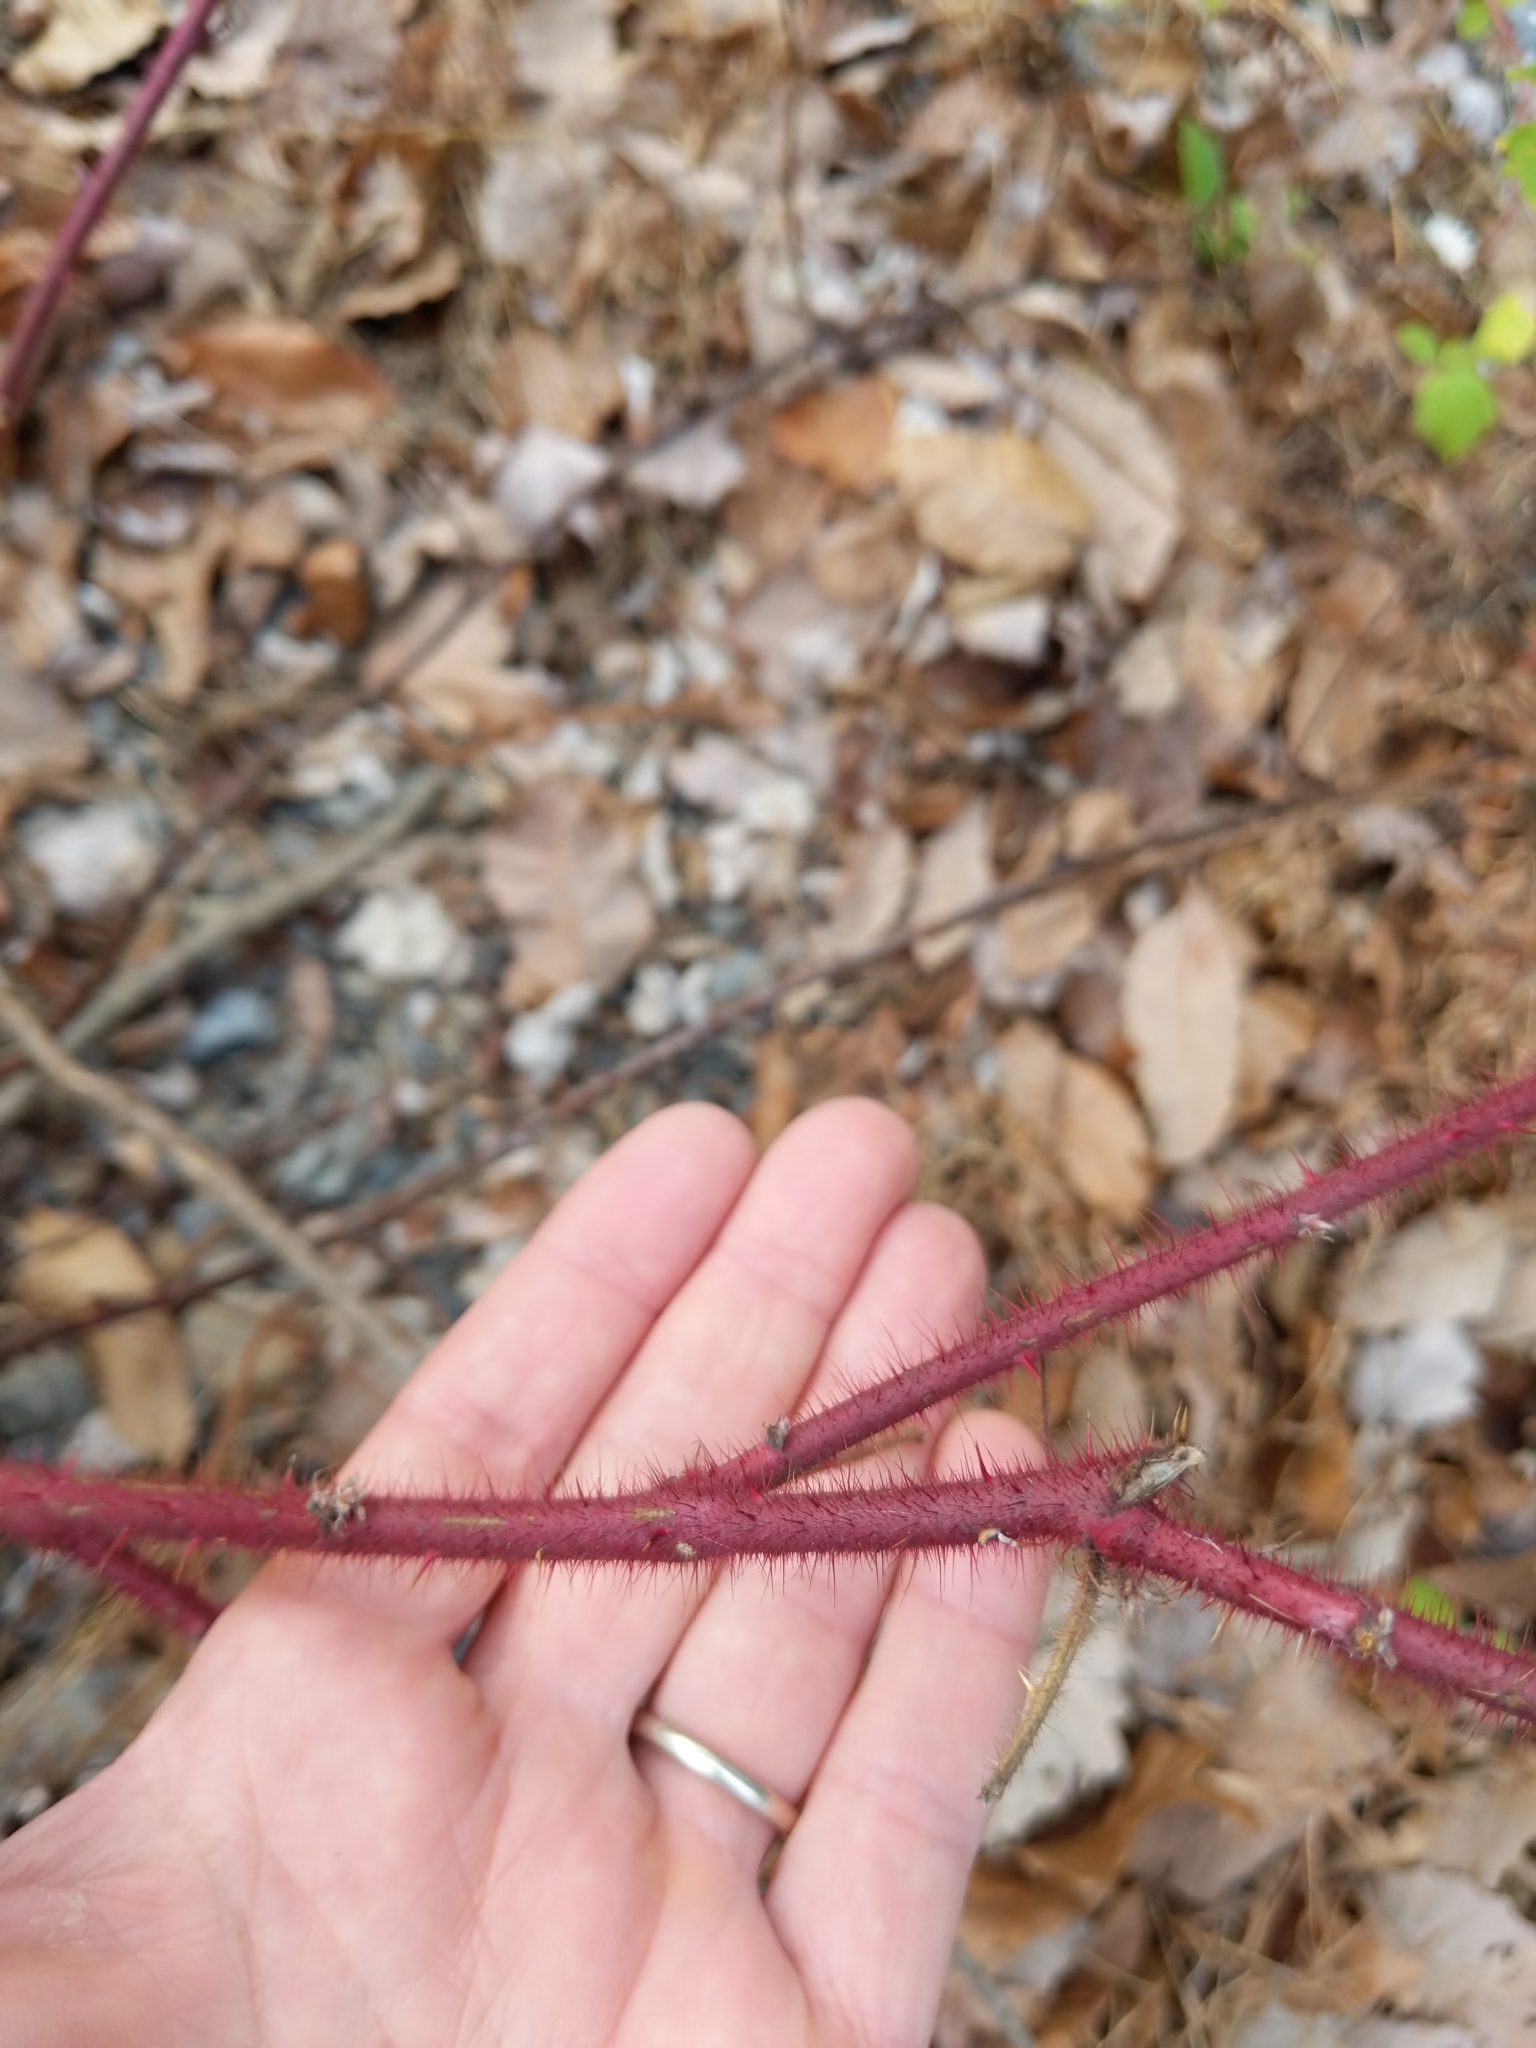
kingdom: Plantae
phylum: Tracheophyta
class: Magnoliopsida
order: Rosales
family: Rosaceae
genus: Rubus
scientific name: Rubus phoenicolasius
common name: Japanese wineberry
